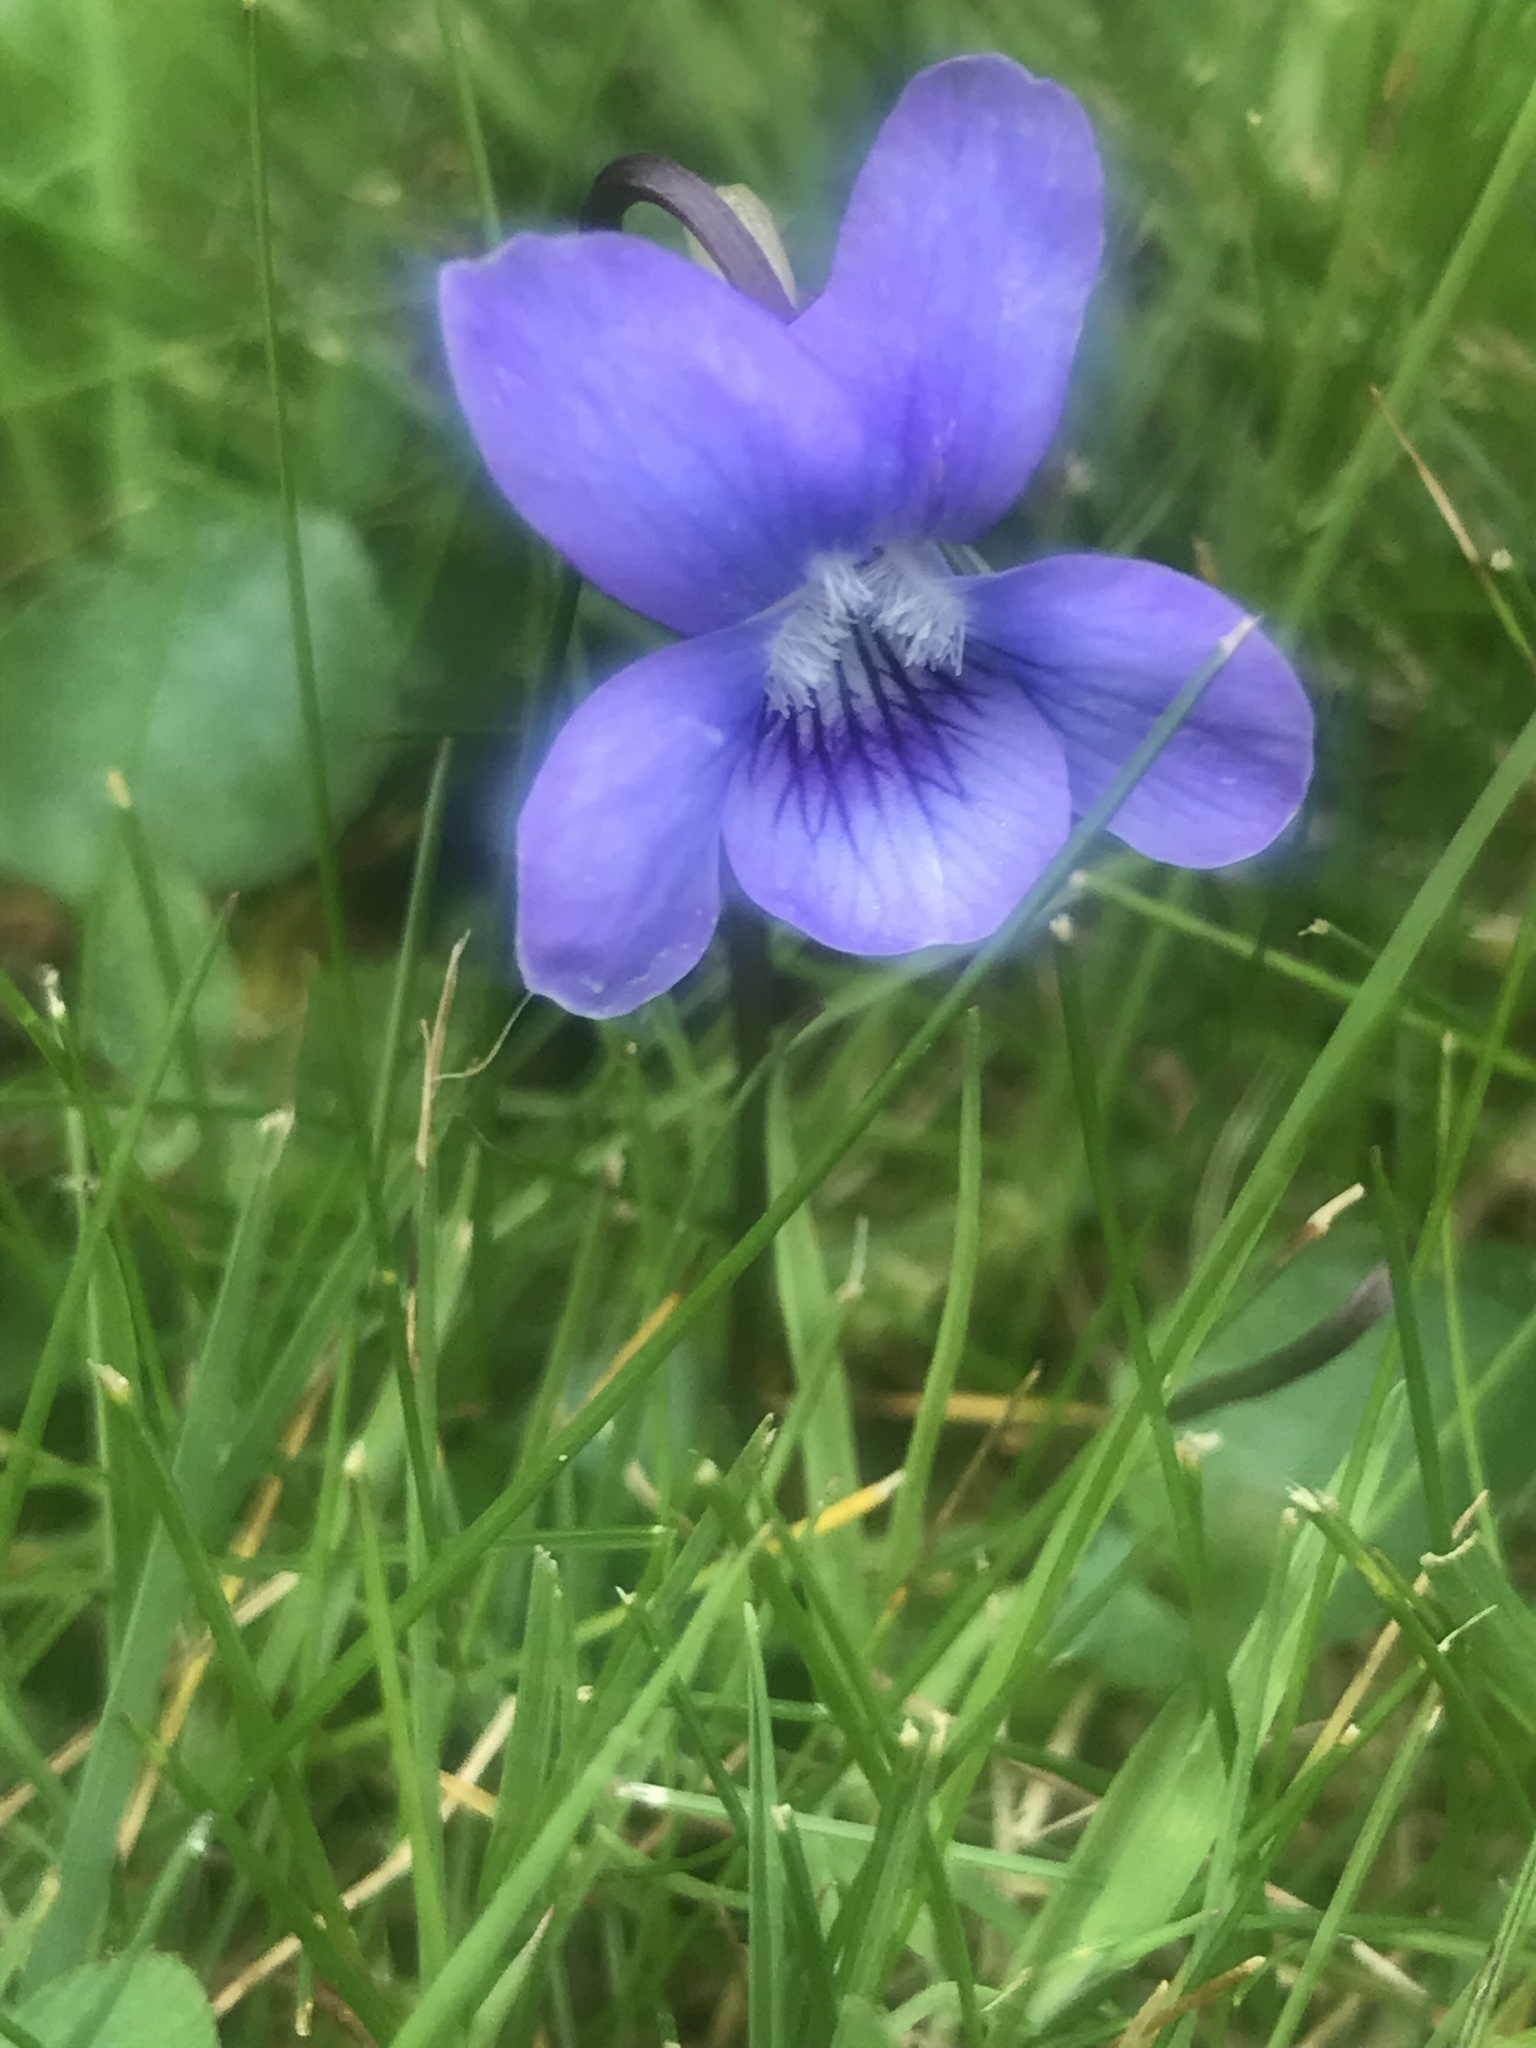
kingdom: Plantae
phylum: Tracheophyta
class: Magnoliopsida
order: Malpighiales
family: Violaceae
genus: Viola
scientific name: Viola riviniana
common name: Common dog-violet
